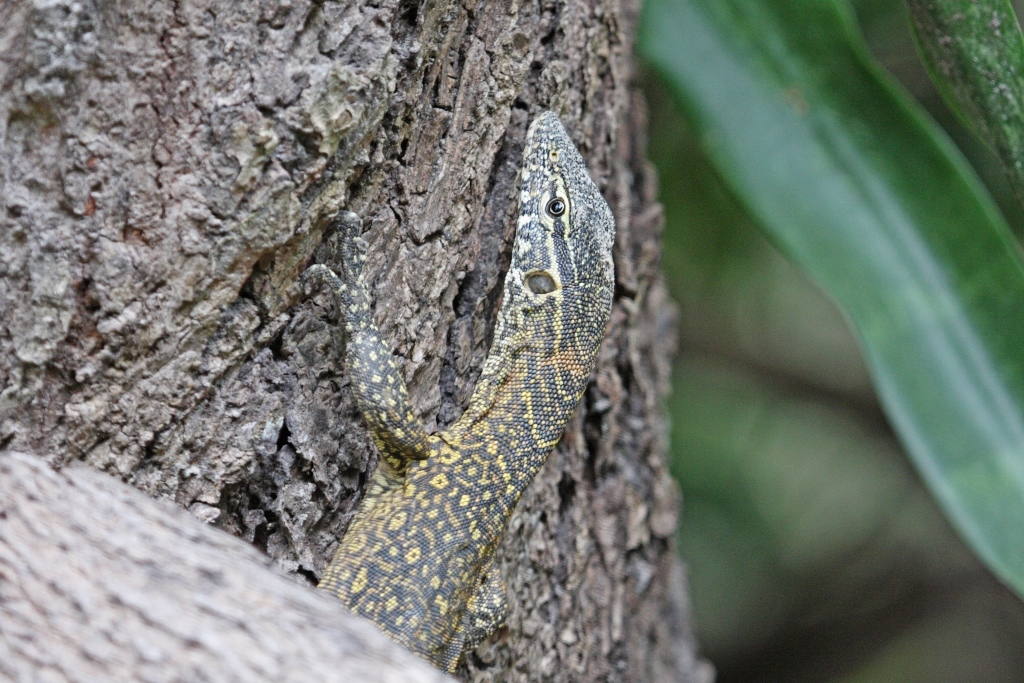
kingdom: Animalia
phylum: Chordata
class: Squamata
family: Varanidae
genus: Varanus
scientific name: Varanus niloticus
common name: Nile monitor
